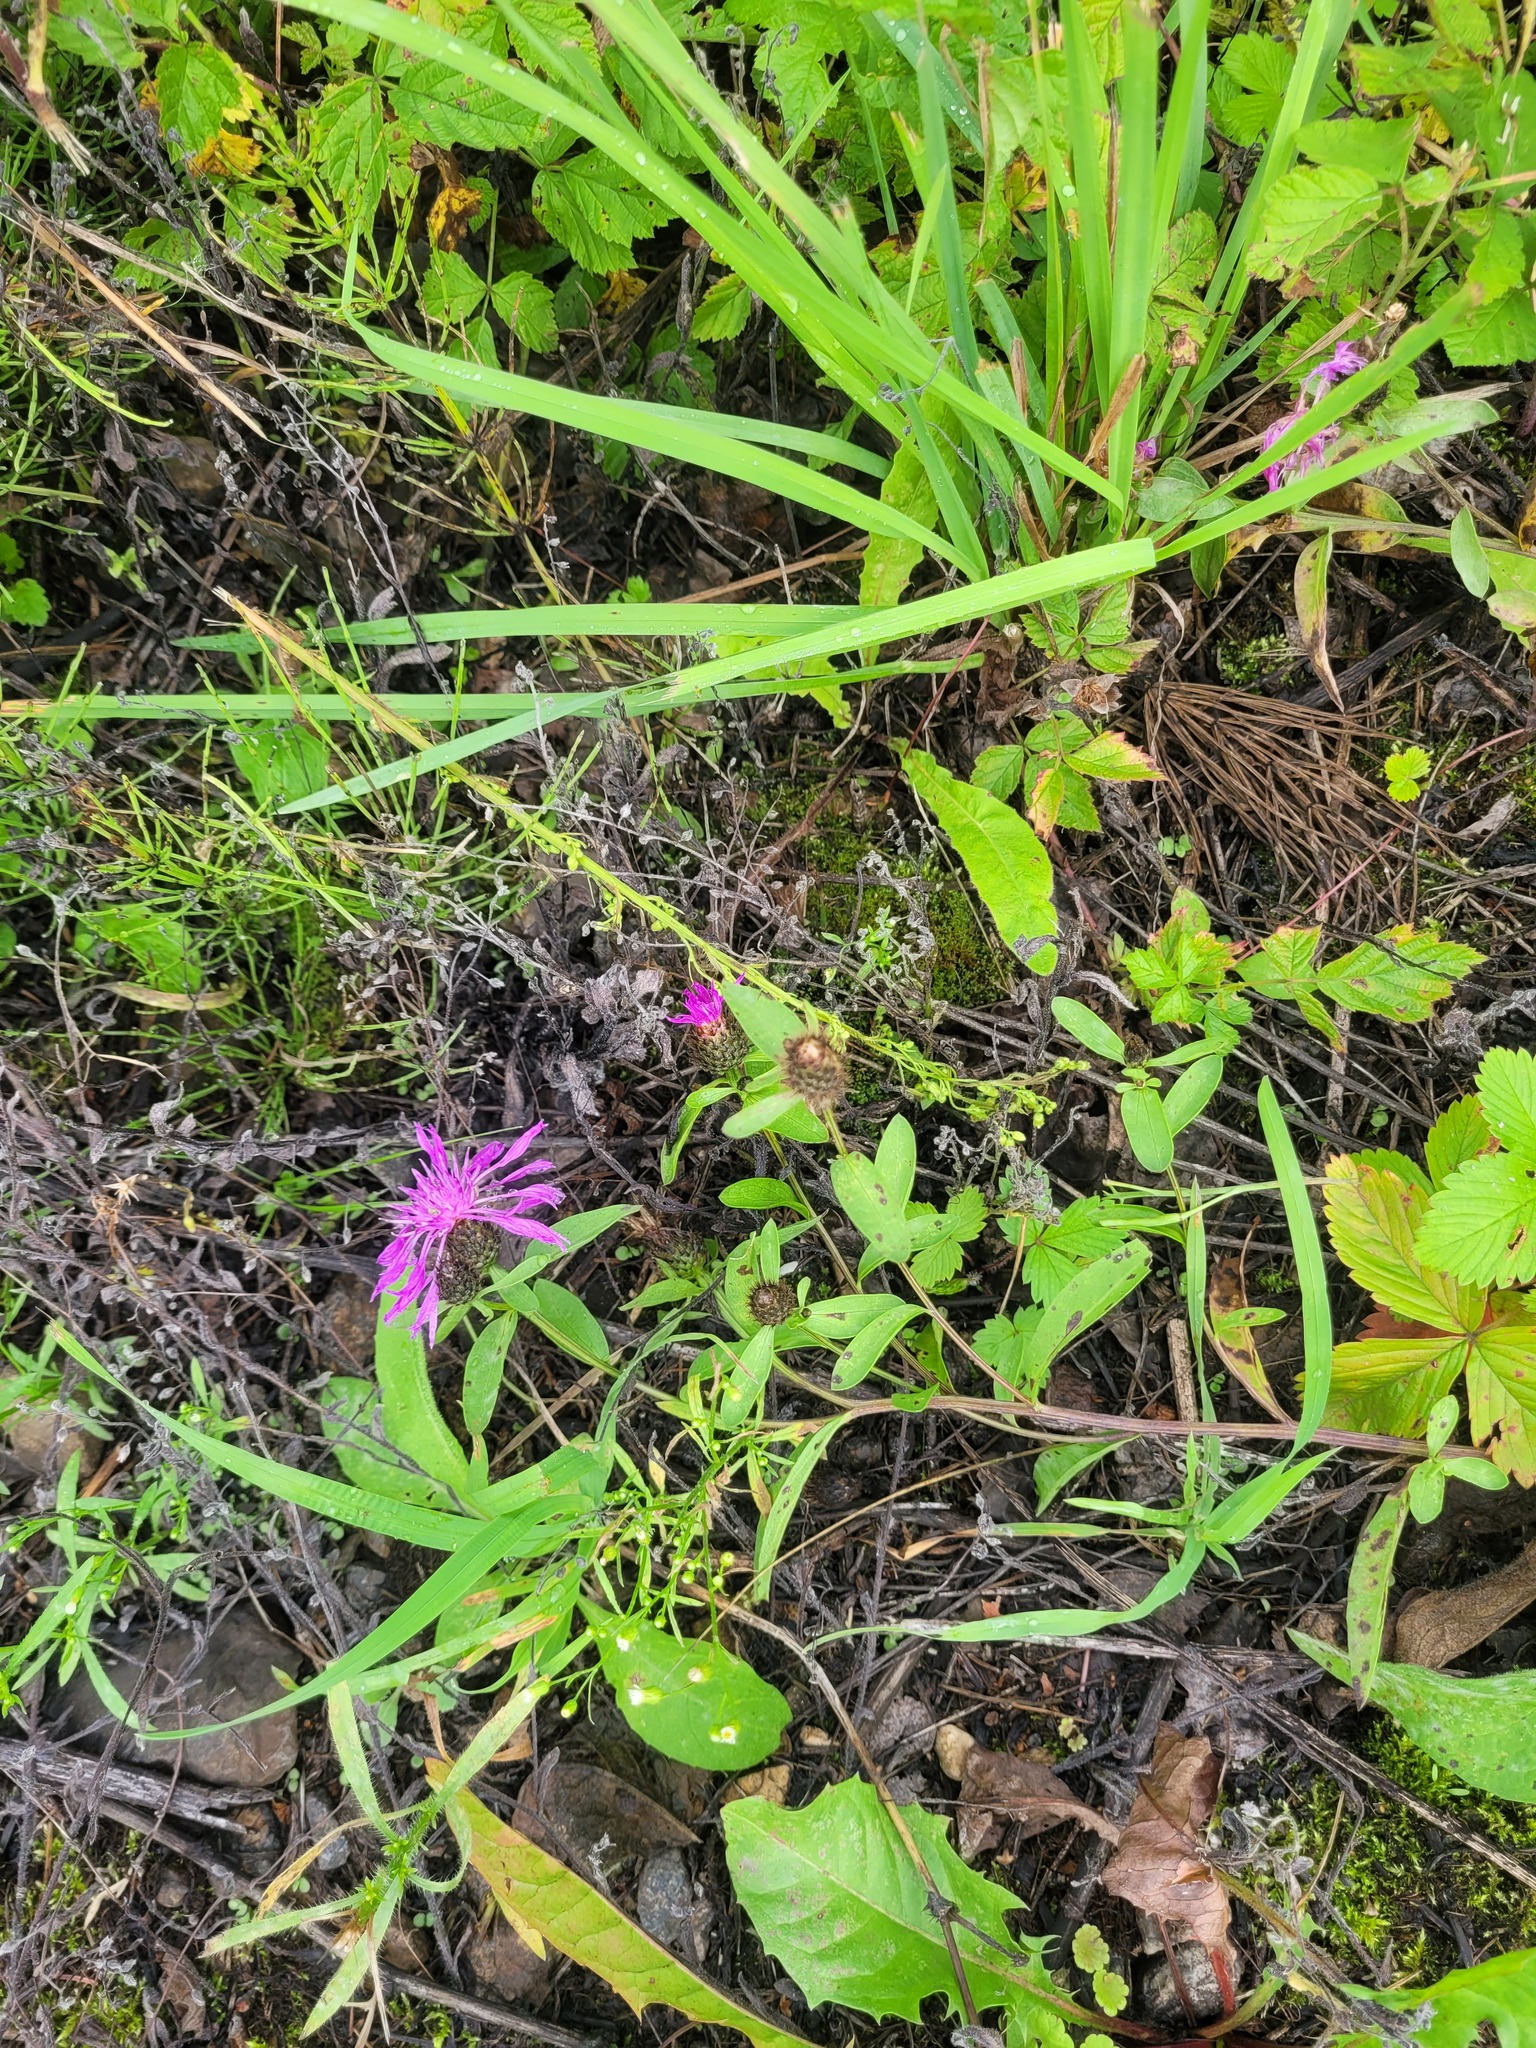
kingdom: Plantae
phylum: Tracheophyta
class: Magnoliopsida
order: Asterales
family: Asteraceae
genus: Centaurea
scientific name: Centaurea phrygia
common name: Wig knapweed
